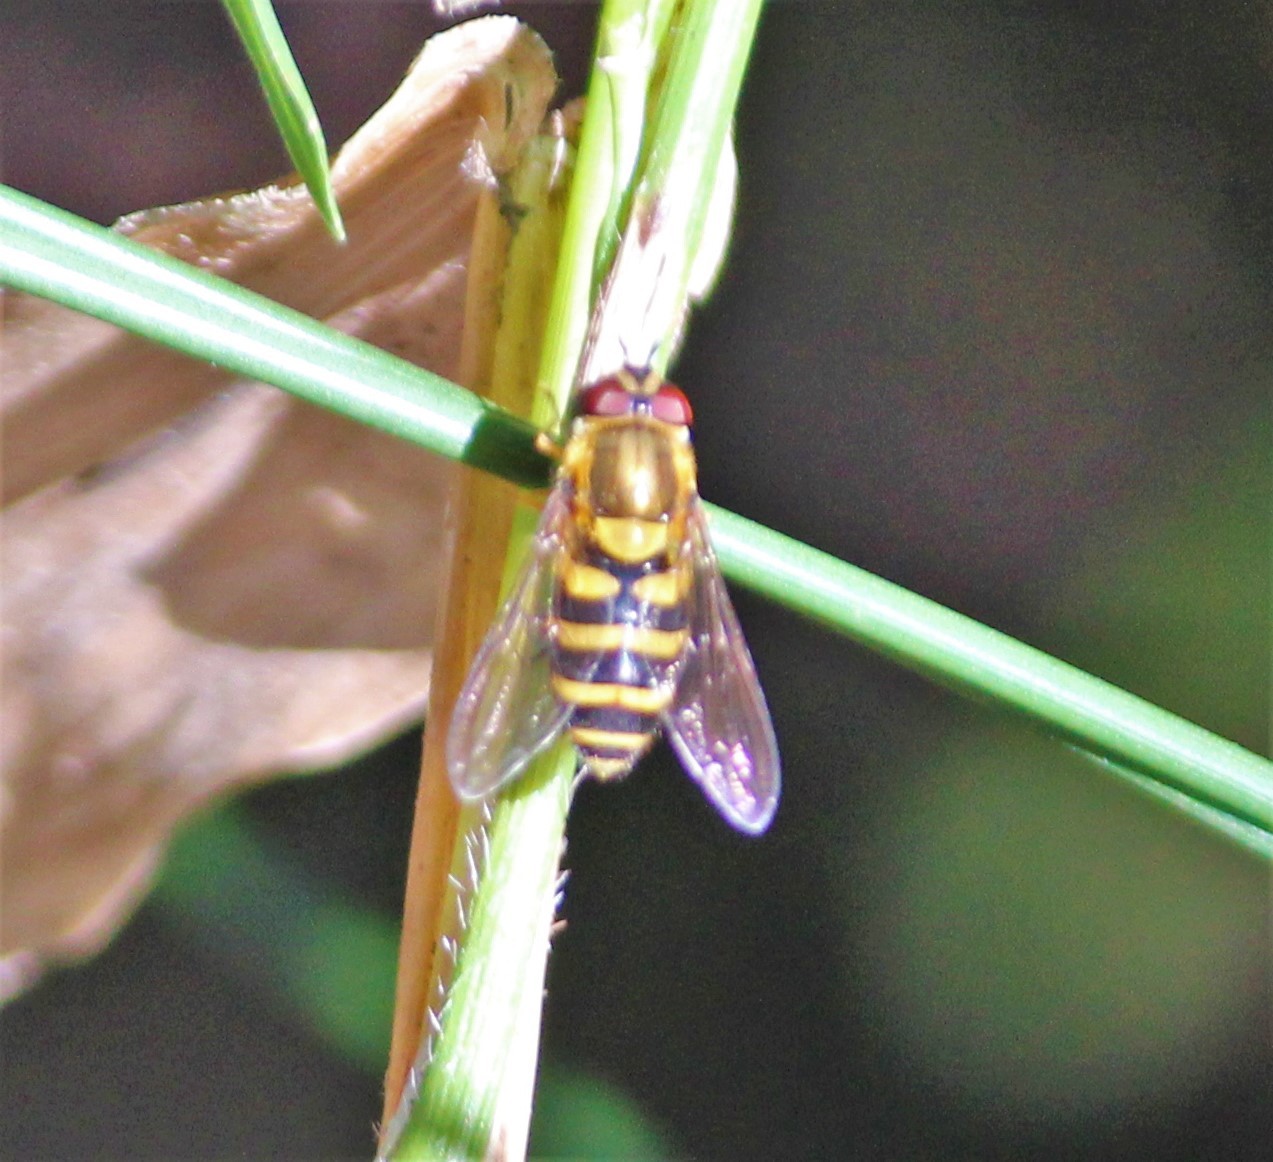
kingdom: Animalia
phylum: Arthropoda
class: Insecta
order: Diptera
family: Syrphidae
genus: Syrphus
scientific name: Syrphus
